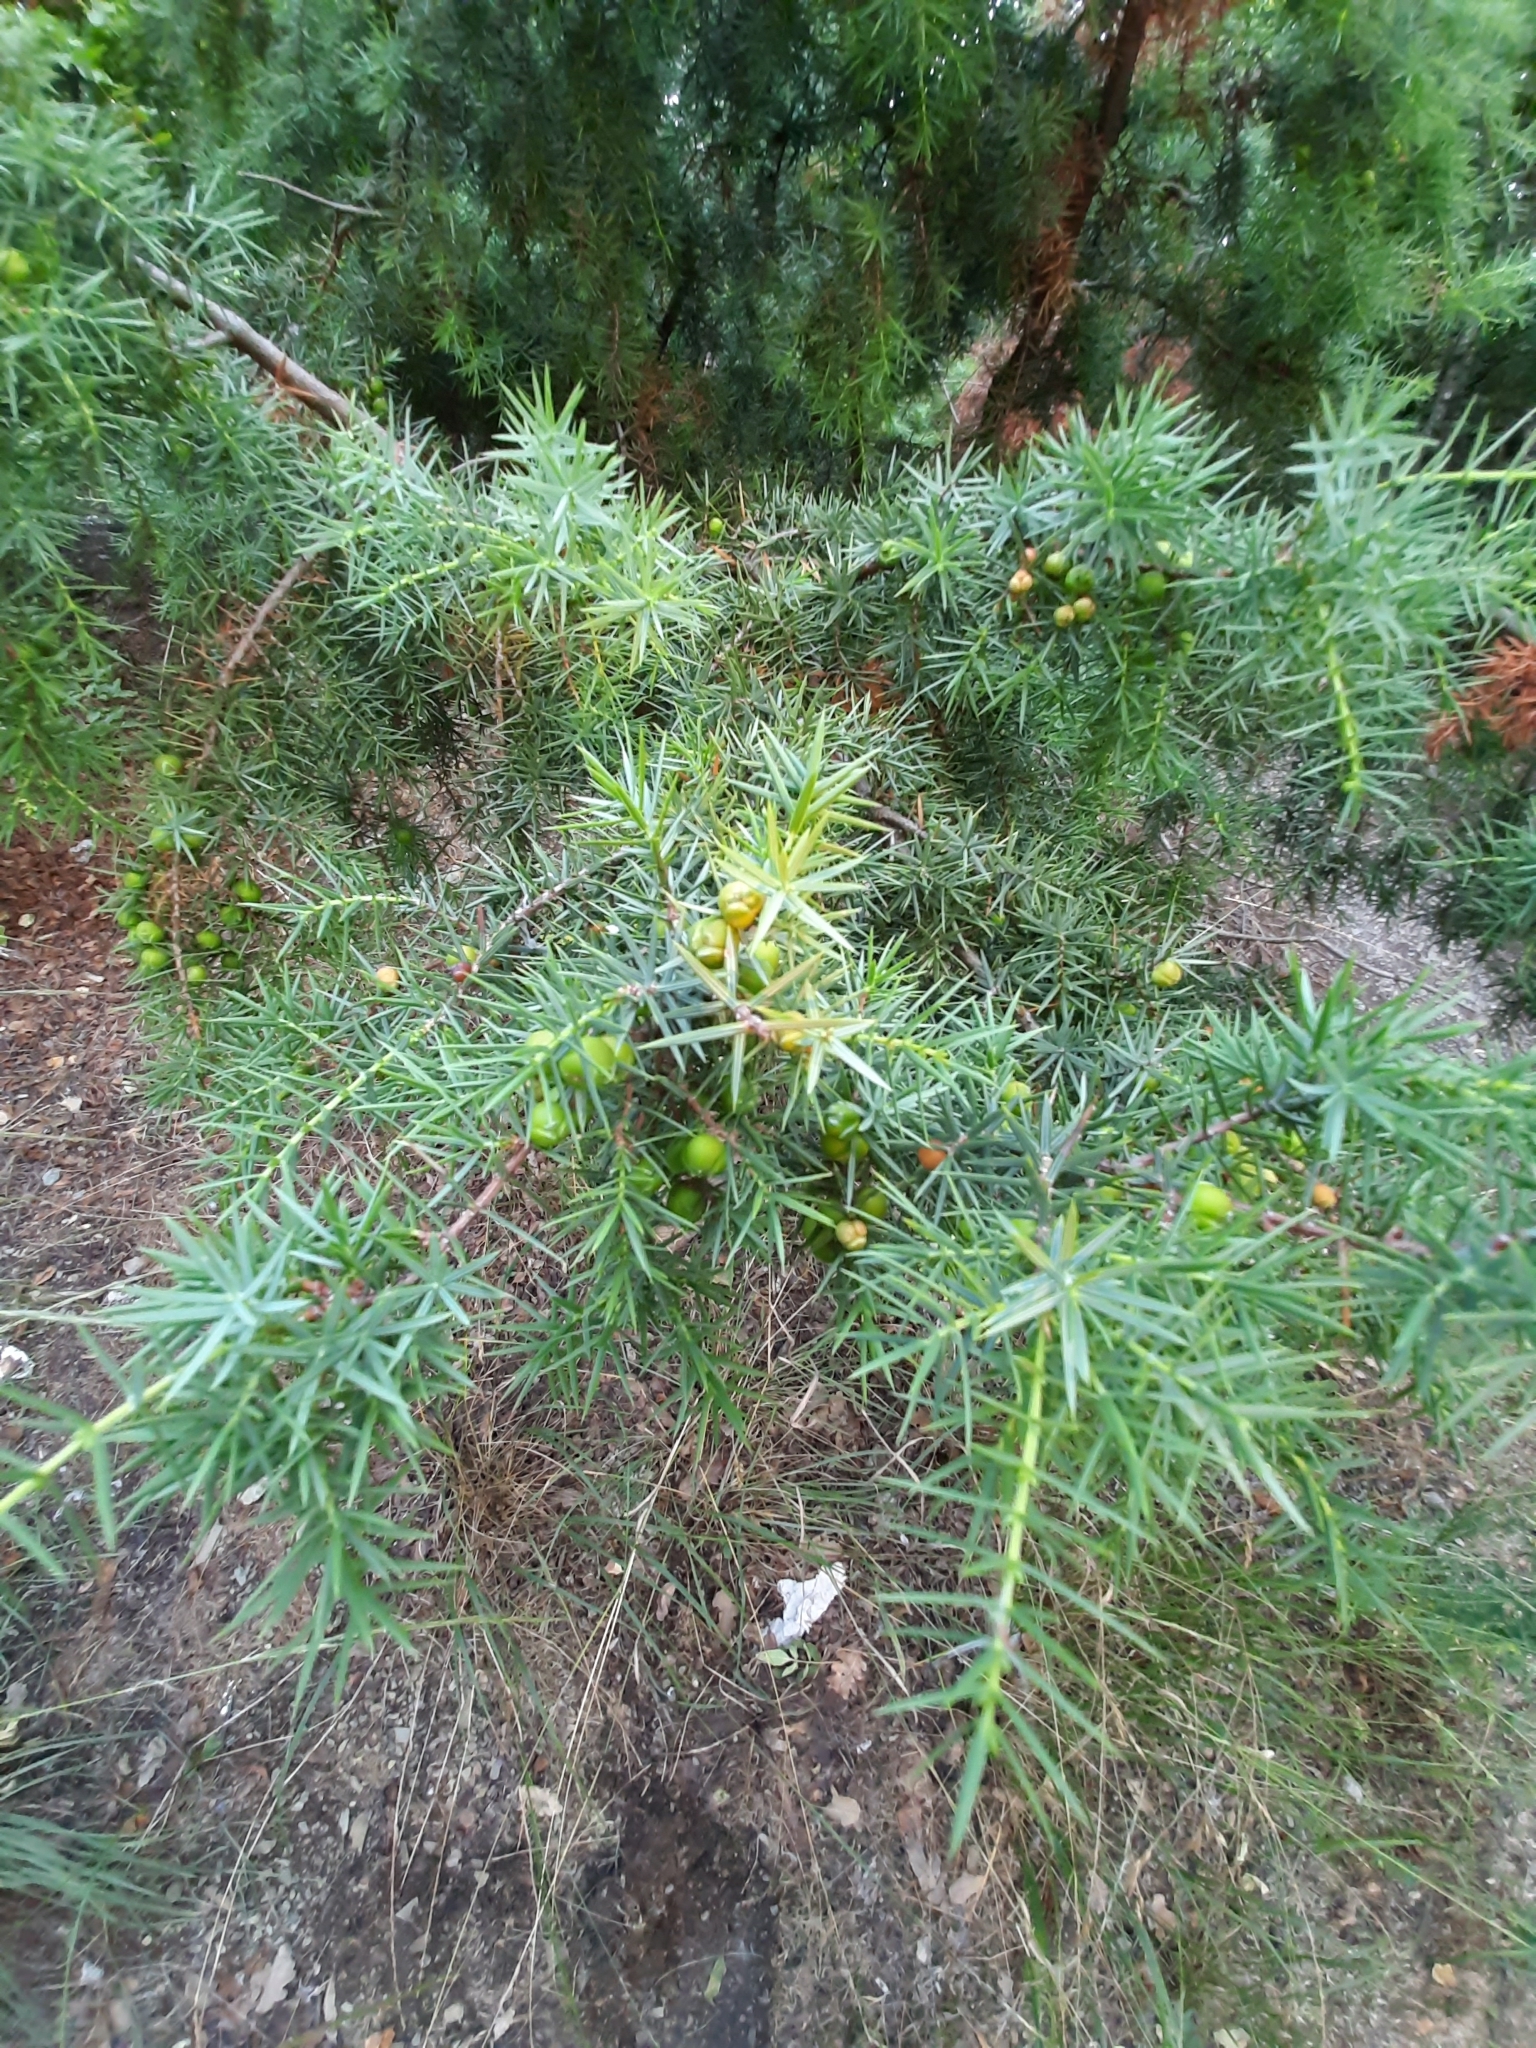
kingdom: Plantae
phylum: Tracheophyta
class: Pinopsida
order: Pinales
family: Cupressaceae
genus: Juniperus
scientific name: Juniperus oxycedrus
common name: Prickly juniper
